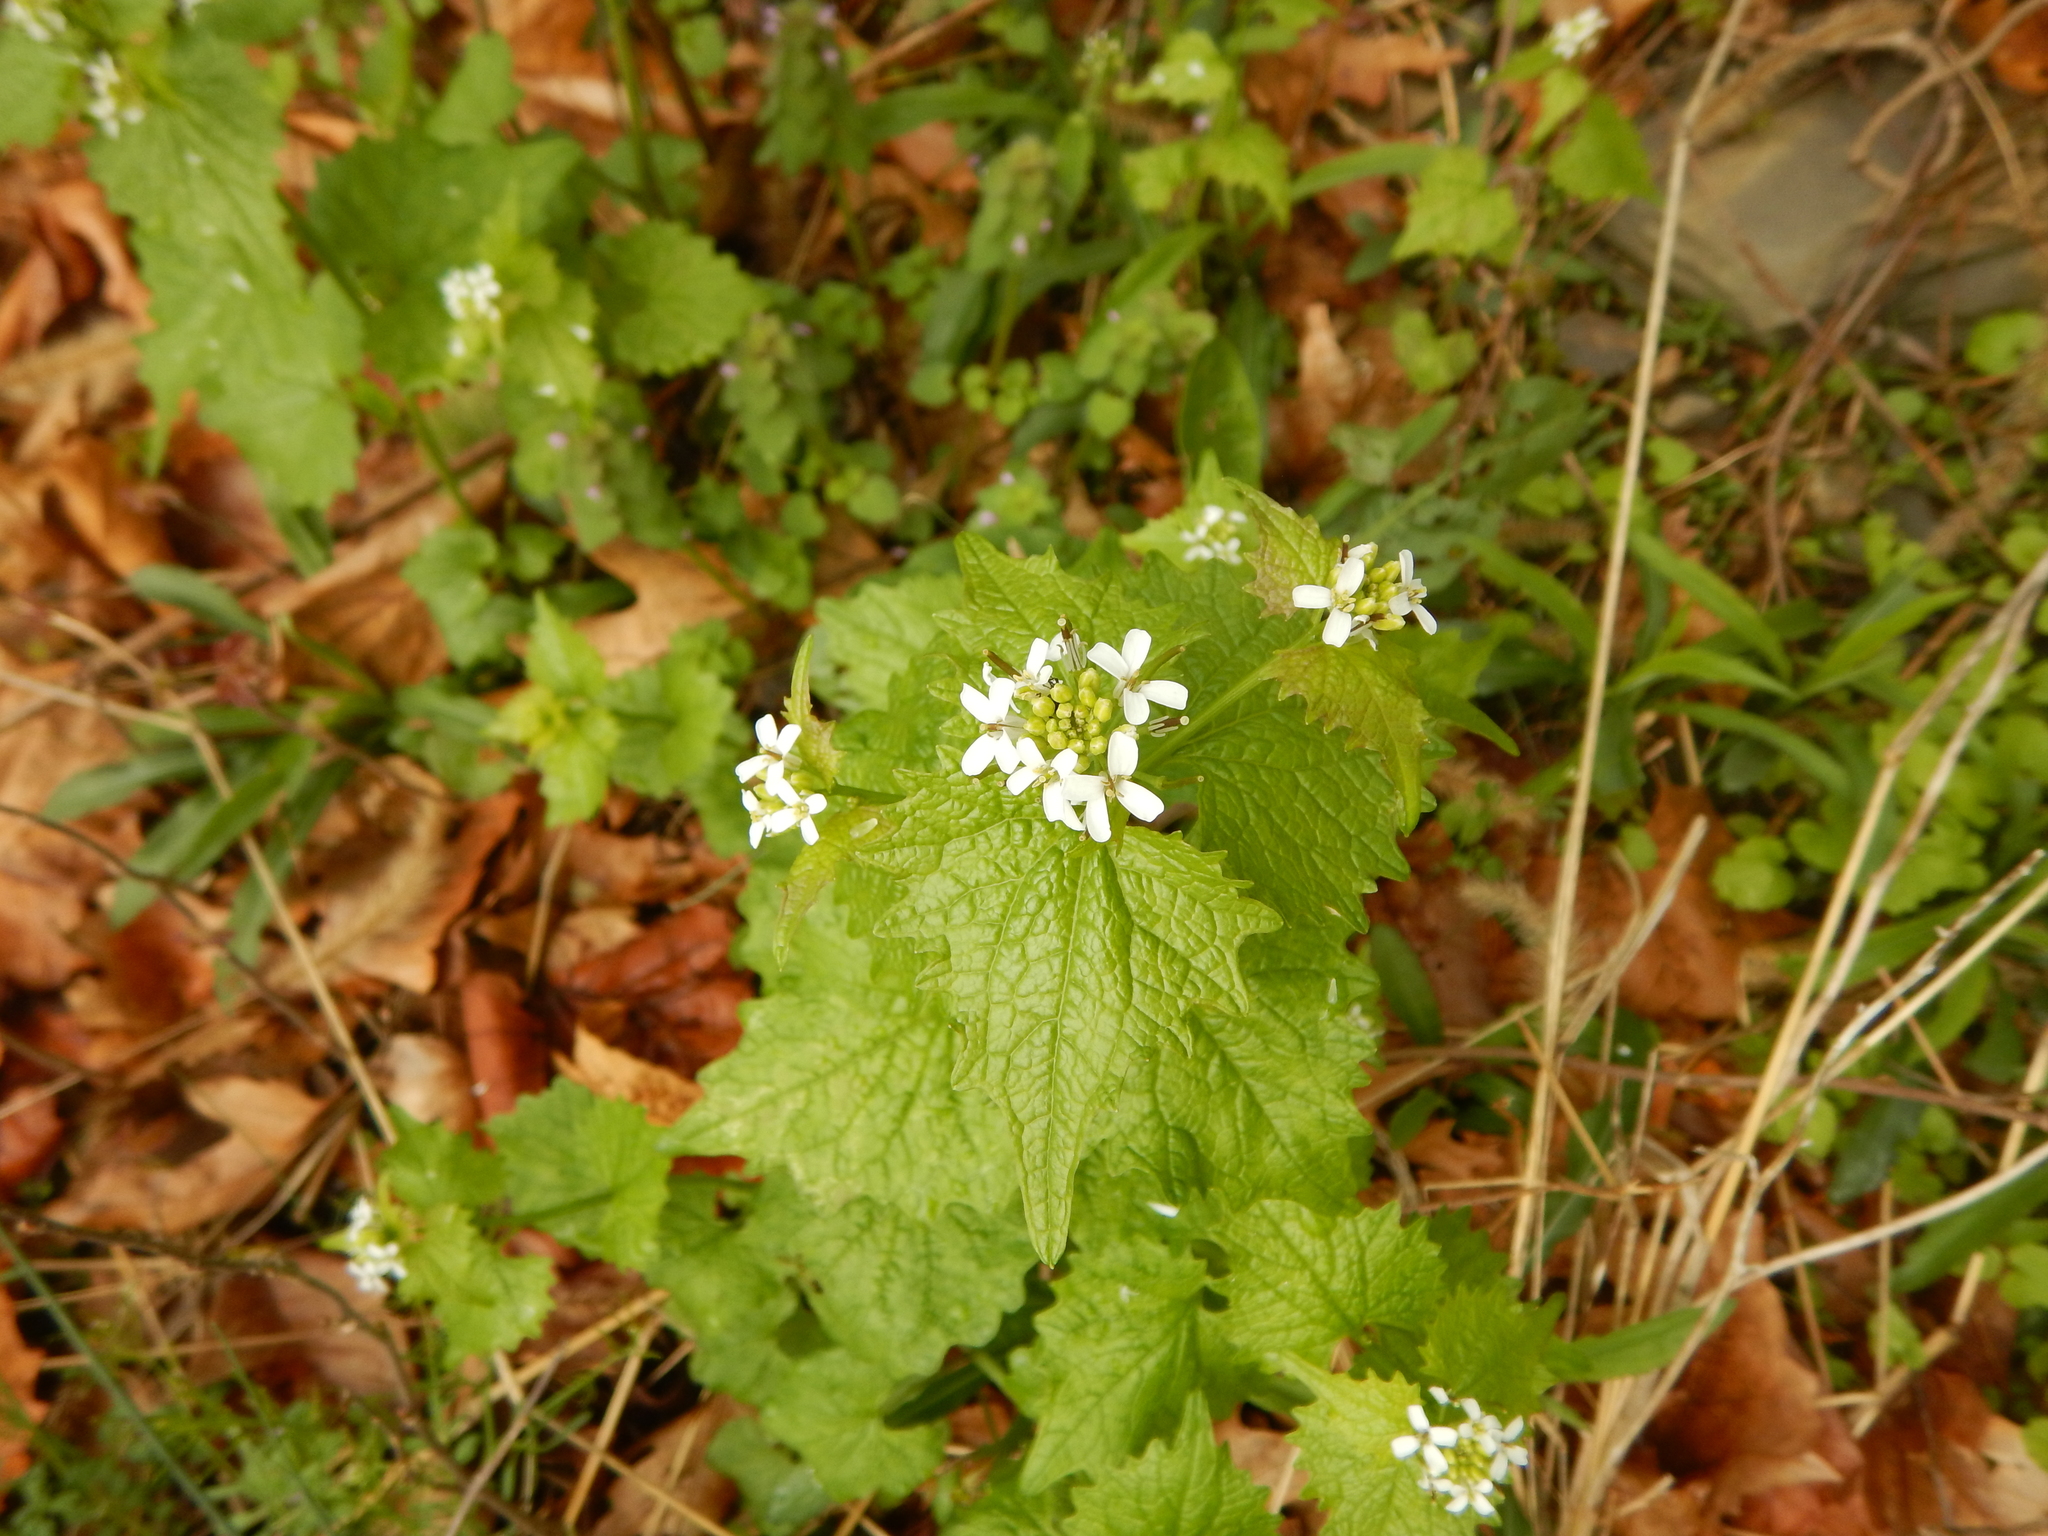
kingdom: Plantae
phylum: Tracheophyta
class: Magnoliopsida
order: Brassicales
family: Brassicaceae
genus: Alliaria
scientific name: Alliaria petiolata
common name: Garlic mustard
